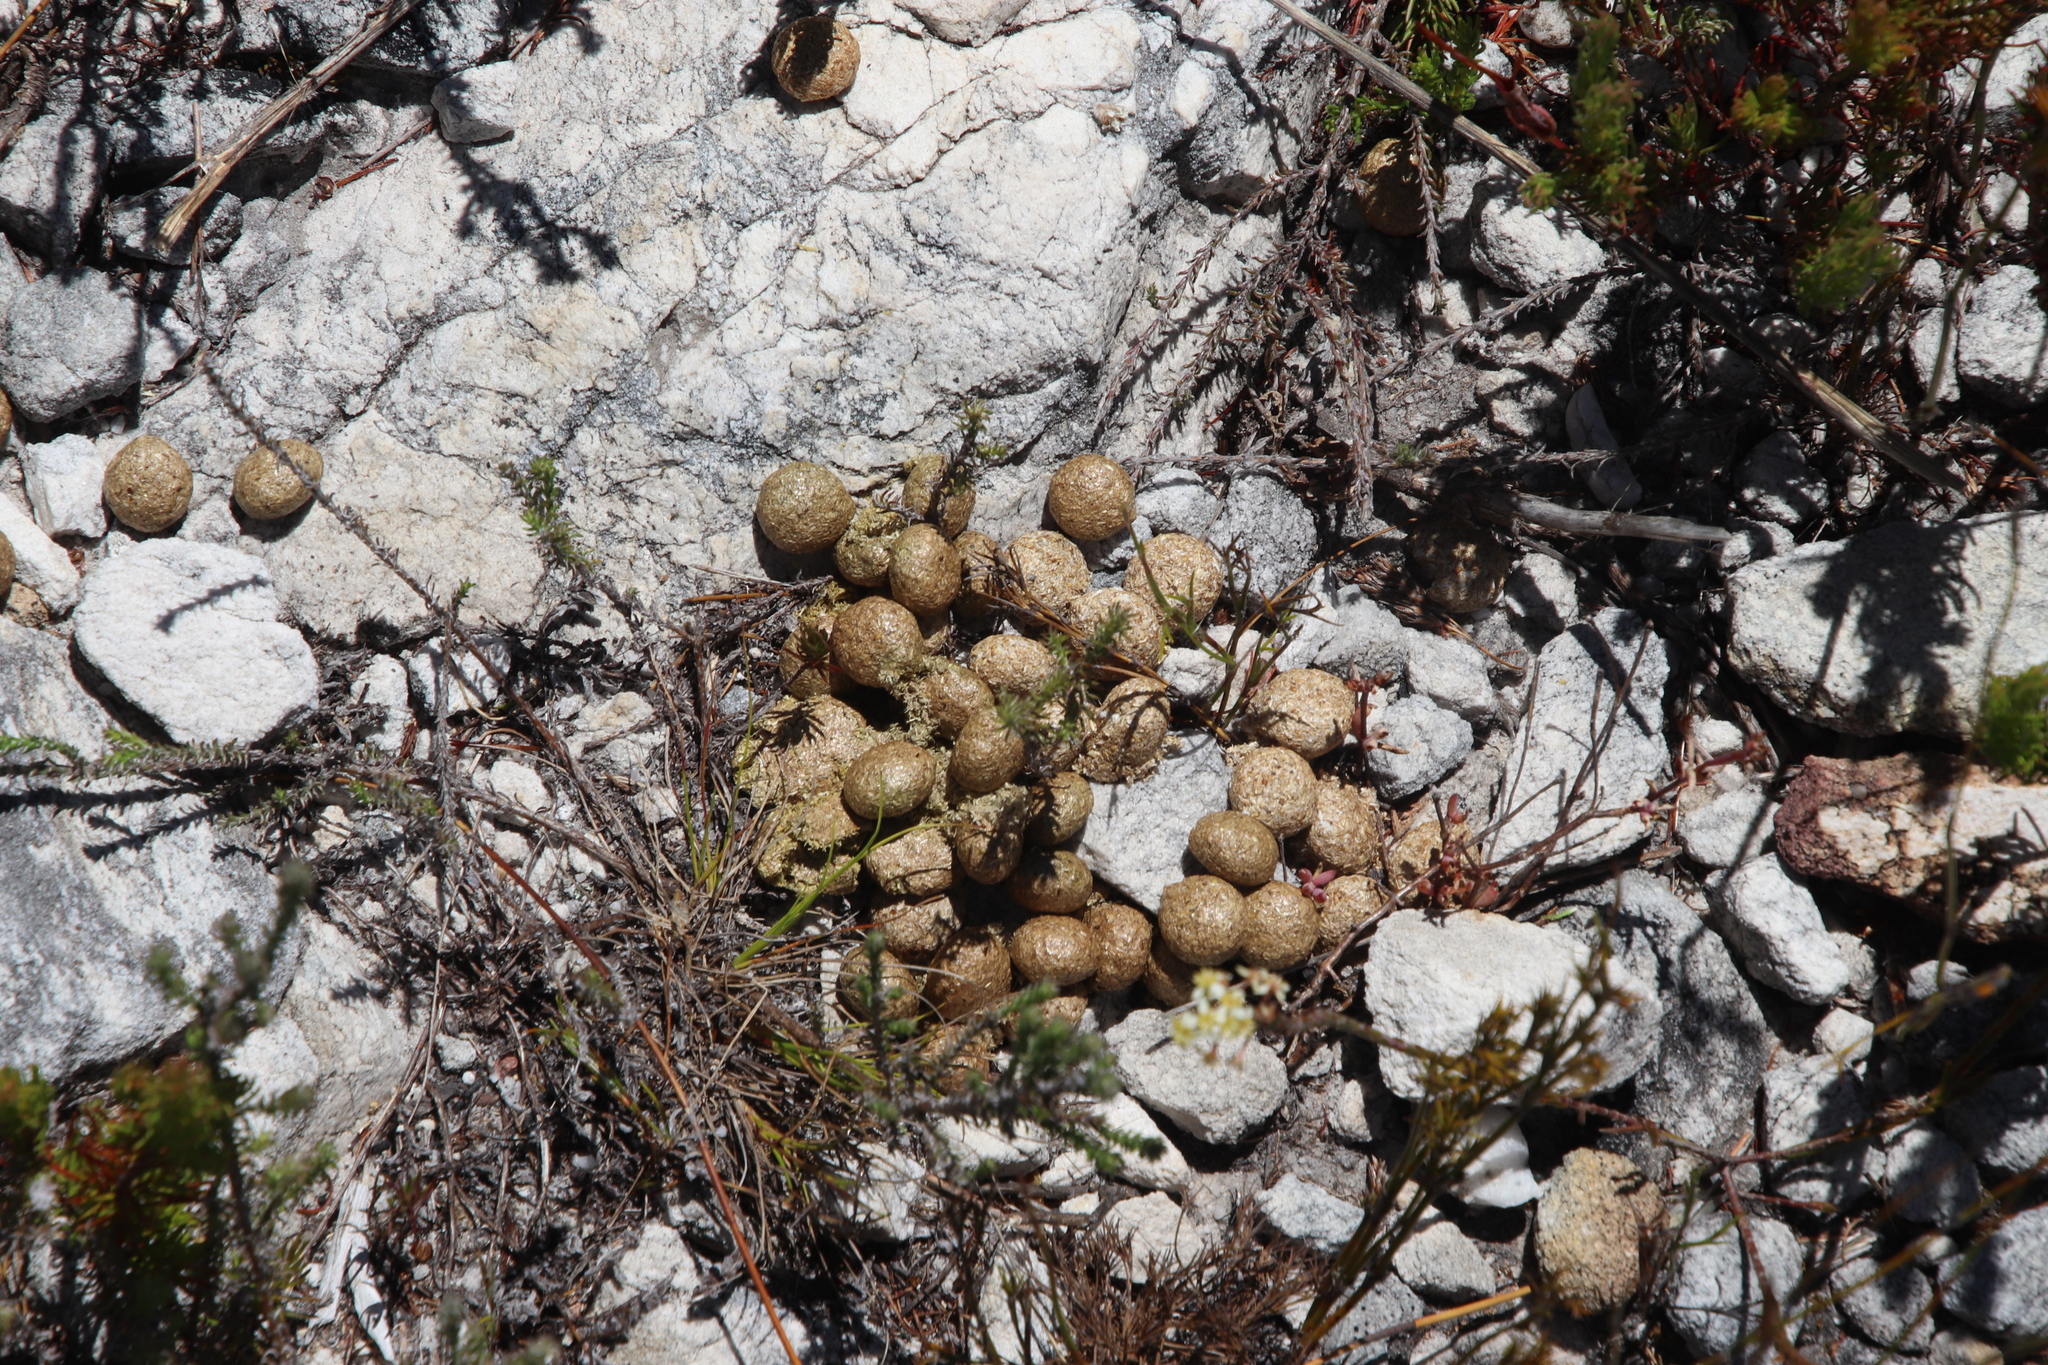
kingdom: Animalia
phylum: Chordata
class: Mammalia
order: Lagomorpha
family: Leporidae
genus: Pronolagus
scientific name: Pronolagus saundersiae
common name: Hewitt's red rock hare
